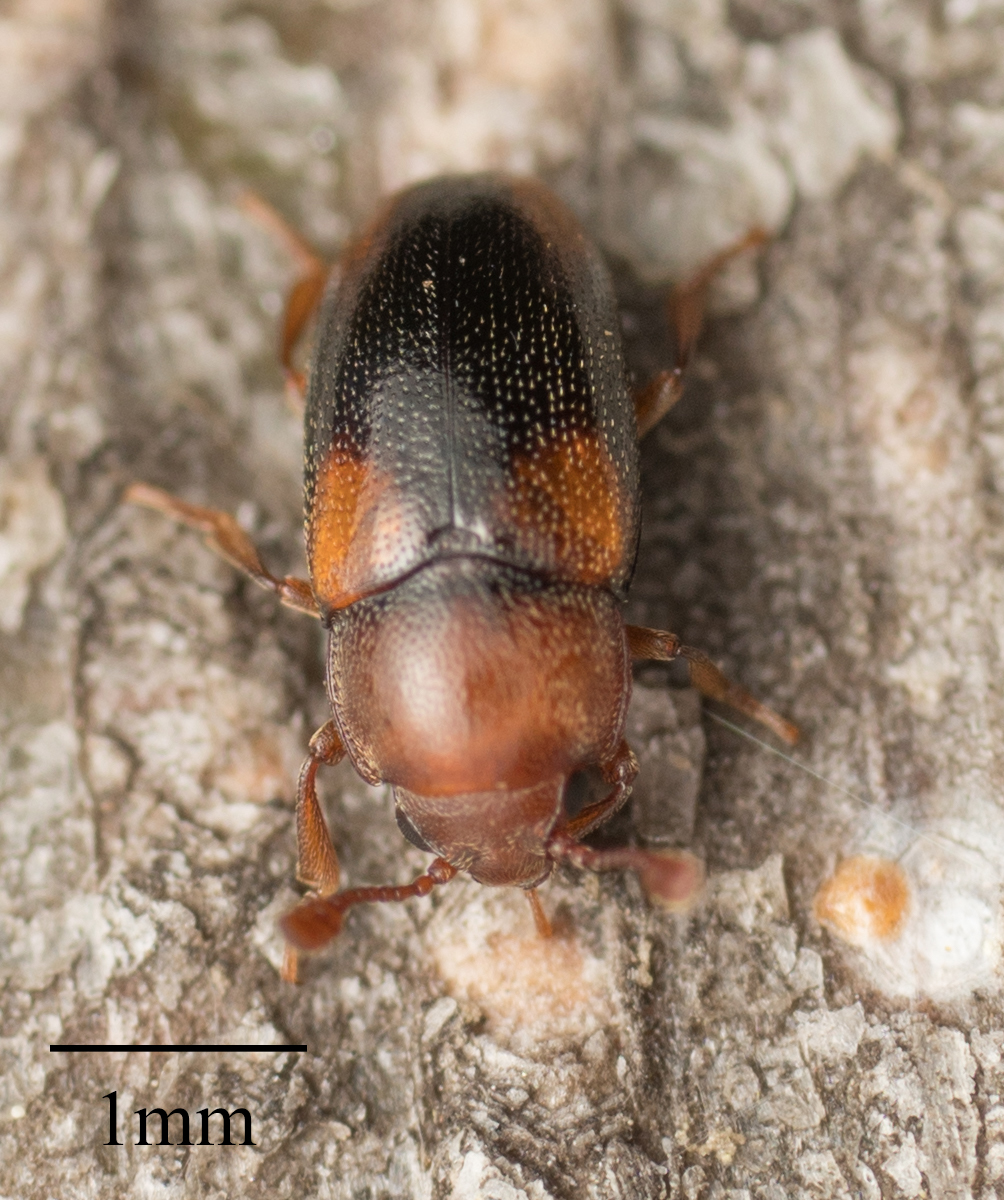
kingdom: Animalia
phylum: Arthropoda
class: Insecta
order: Coleoptera
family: Erotylidae
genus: Dacne
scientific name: Dacne californica
